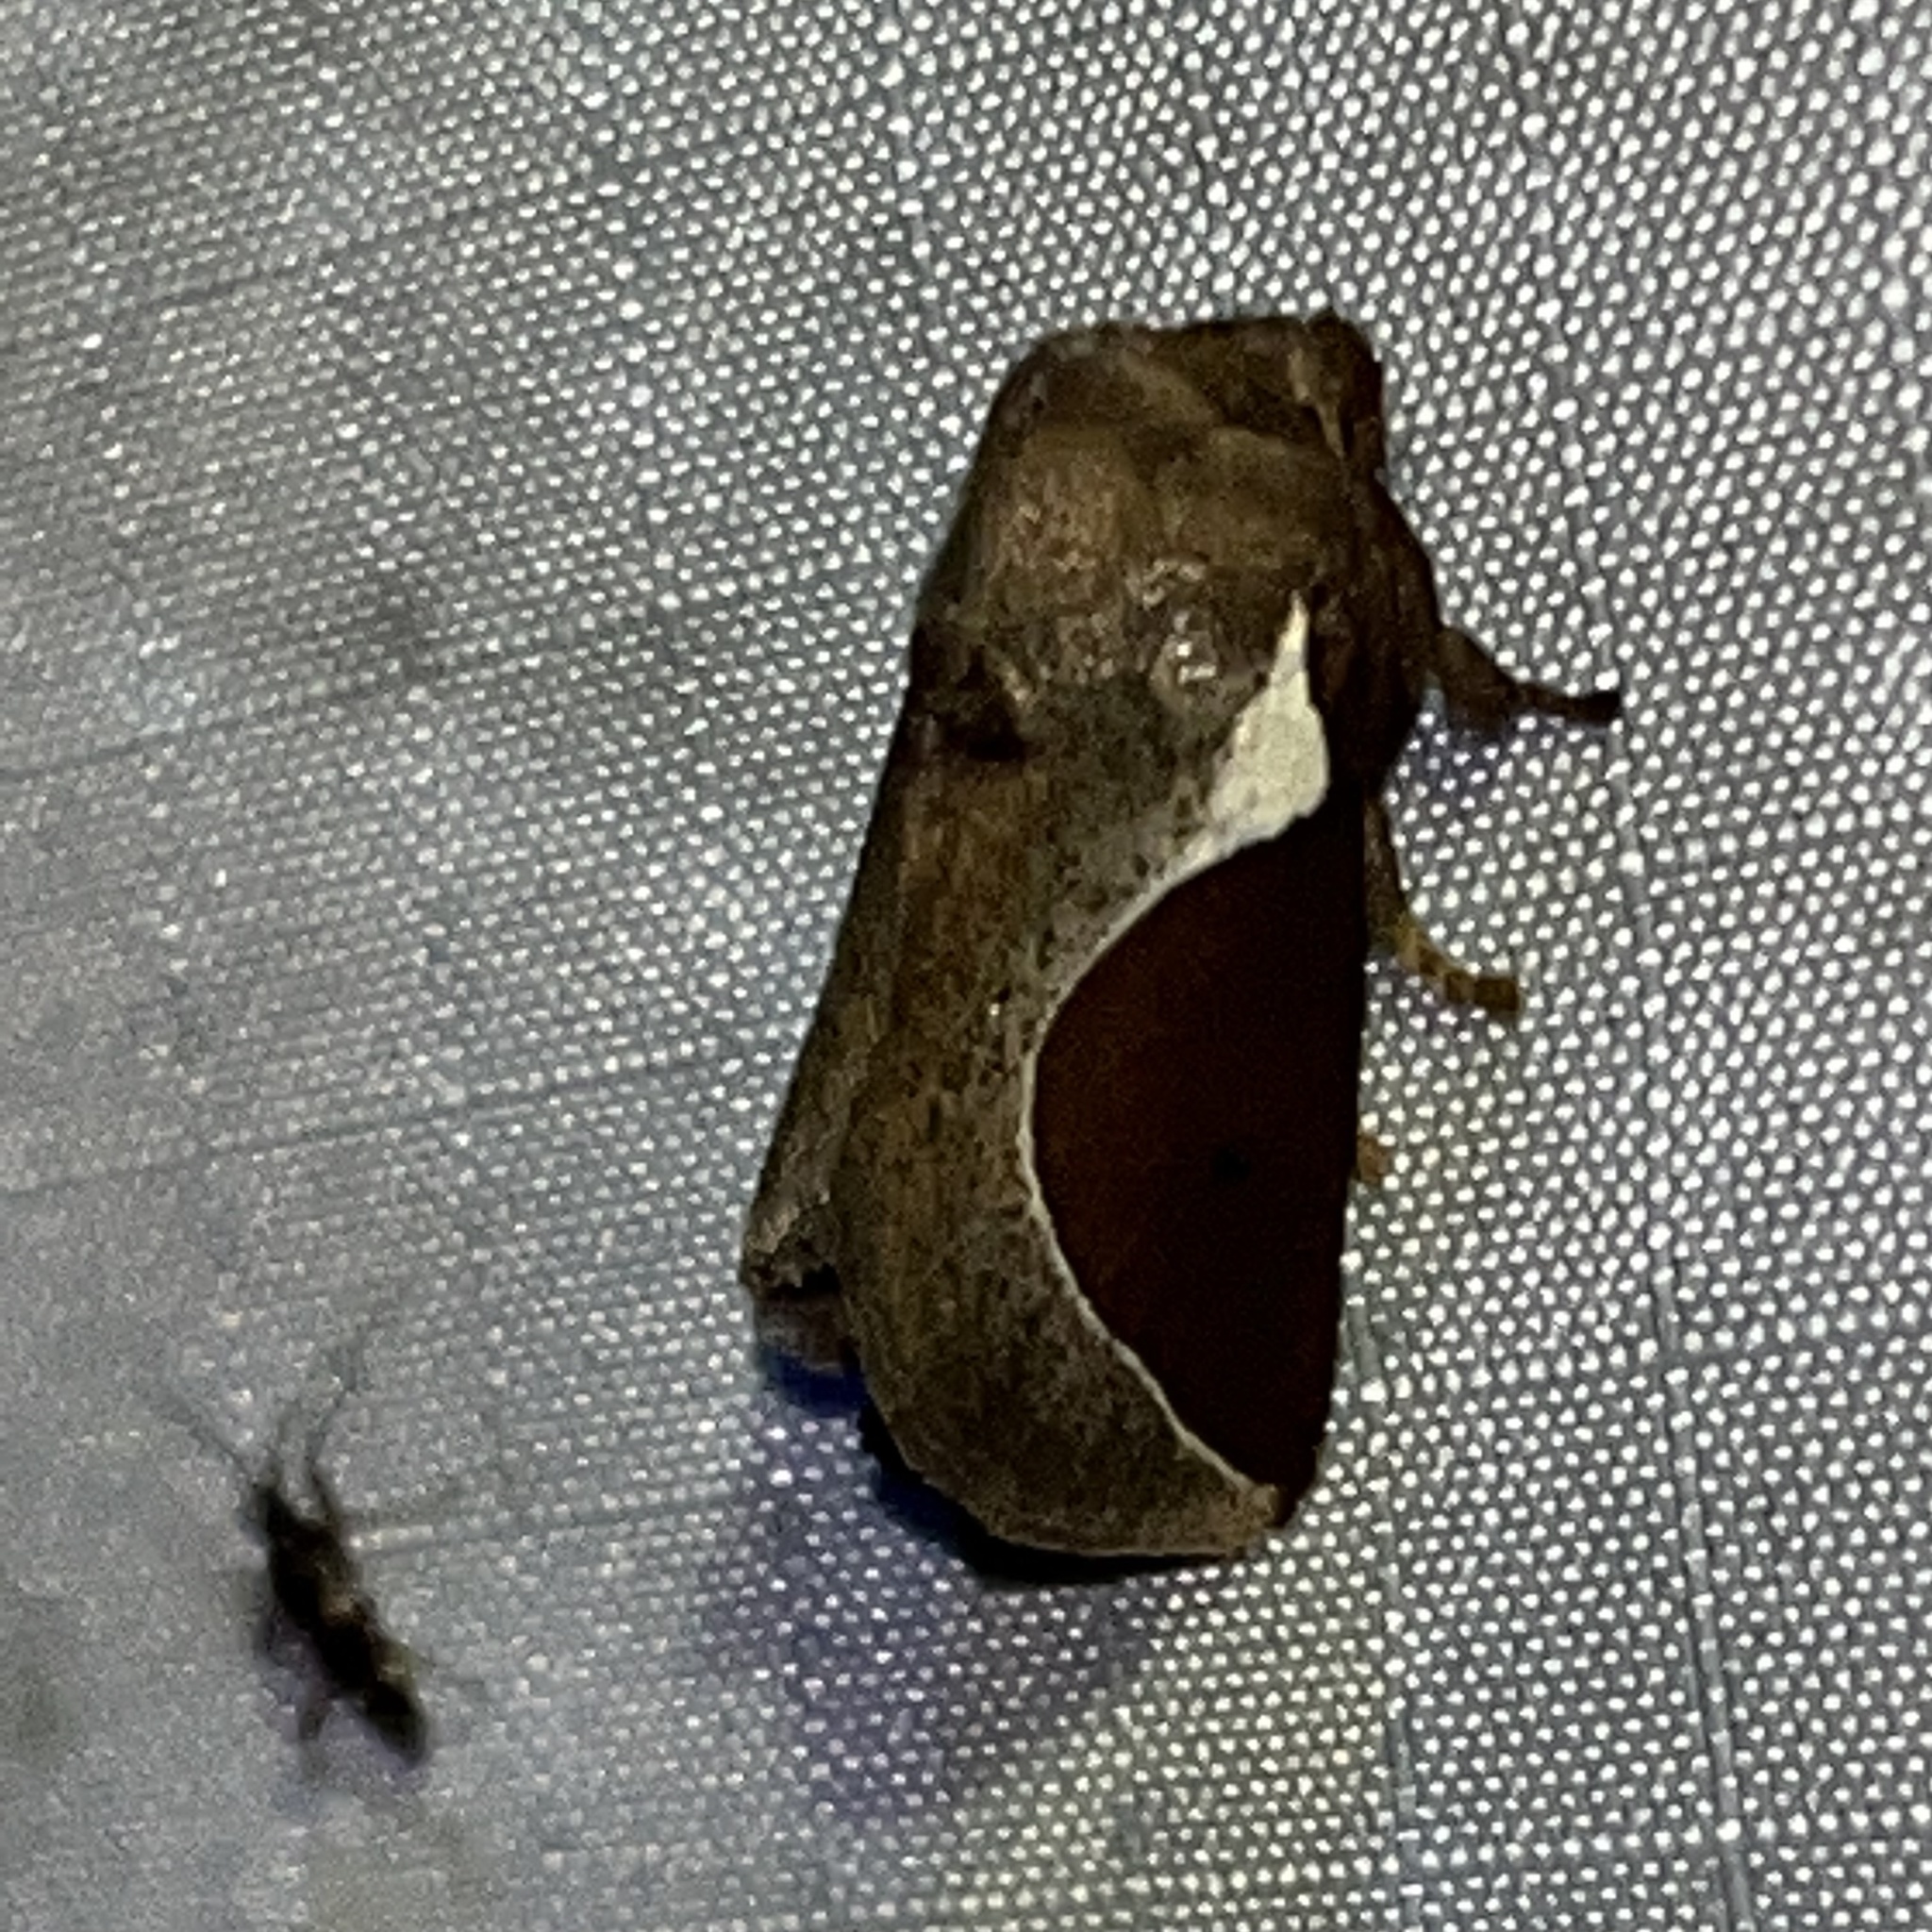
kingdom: Animalia
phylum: Arthropoda
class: Insecta
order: Lepidoptera
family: Limacodidae
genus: Prolimacodes
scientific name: Prolimacodes badia
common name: Skiff moth
